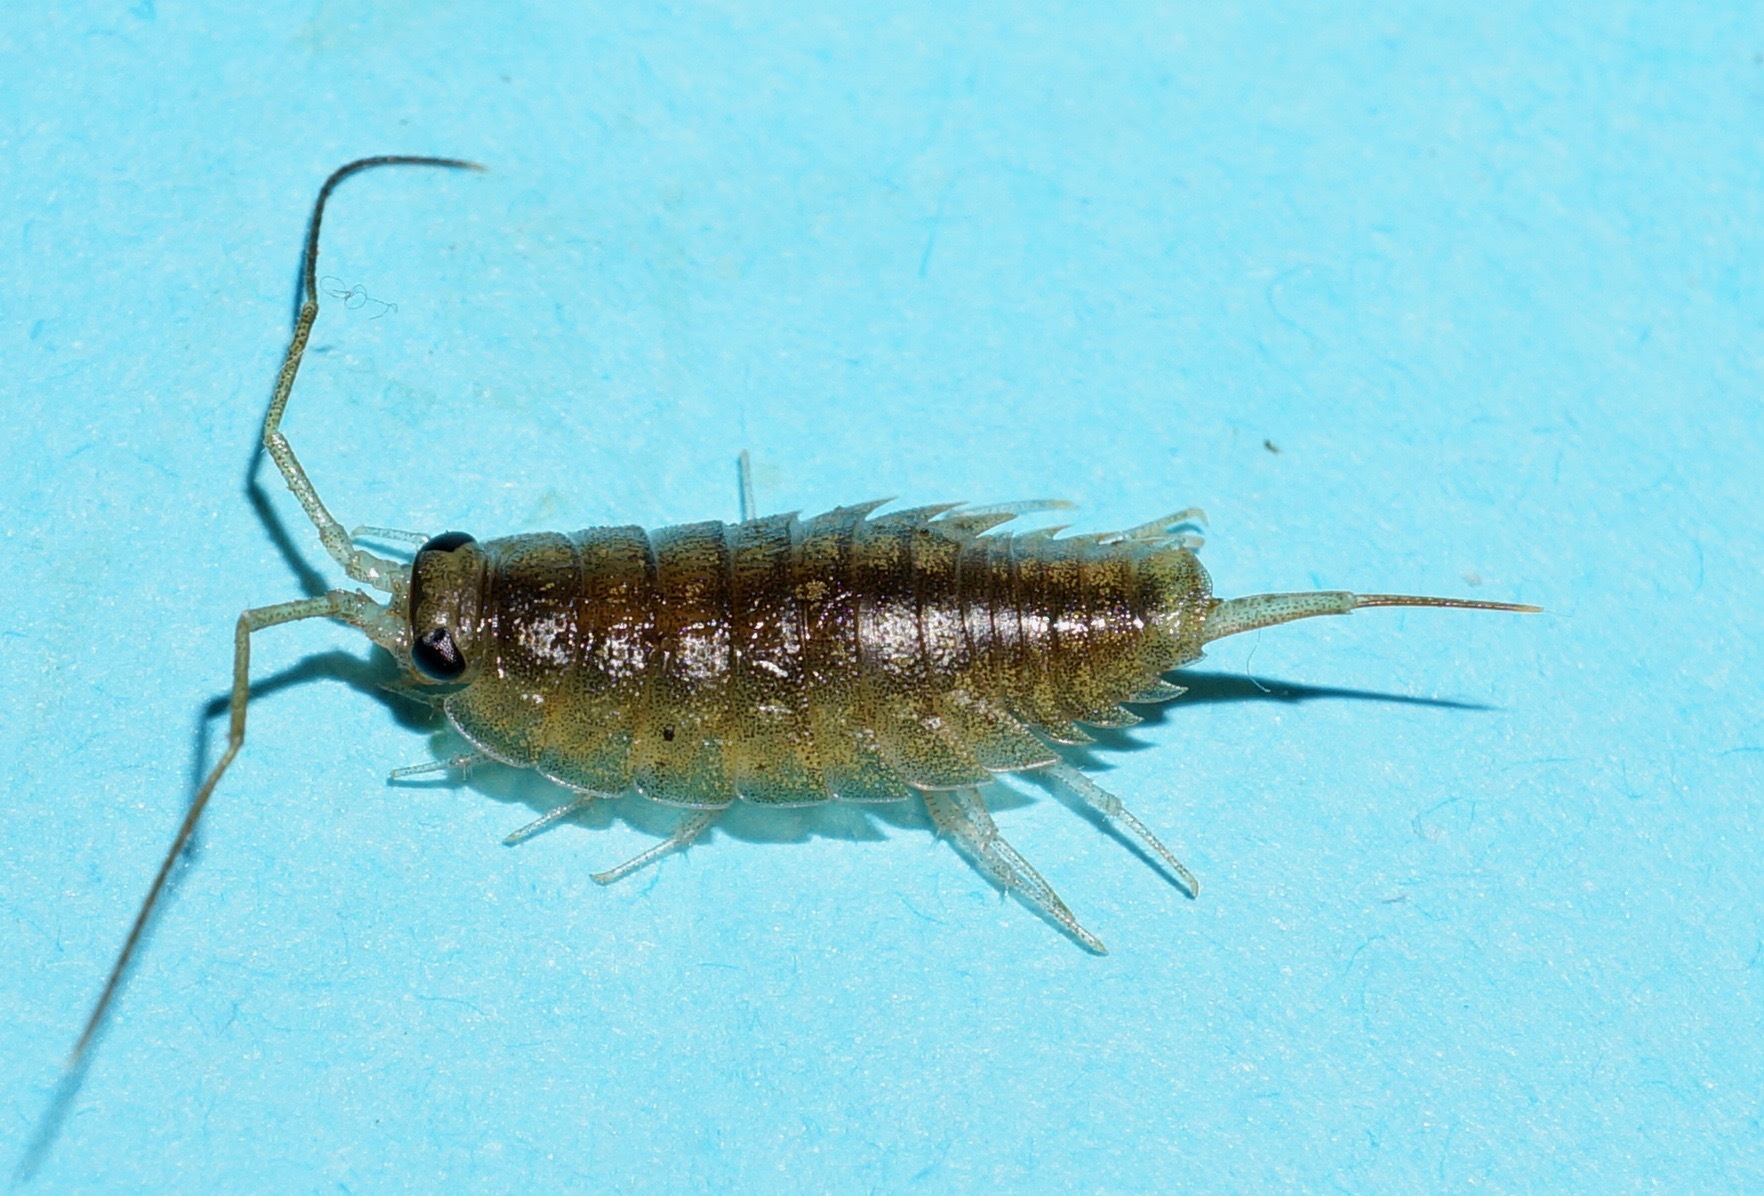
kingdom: Animalia
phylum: Arthropoda
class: Malacostraca
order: Isopoda
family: Ligiidae
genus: Ligia
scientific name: Ligia novizealandiae
